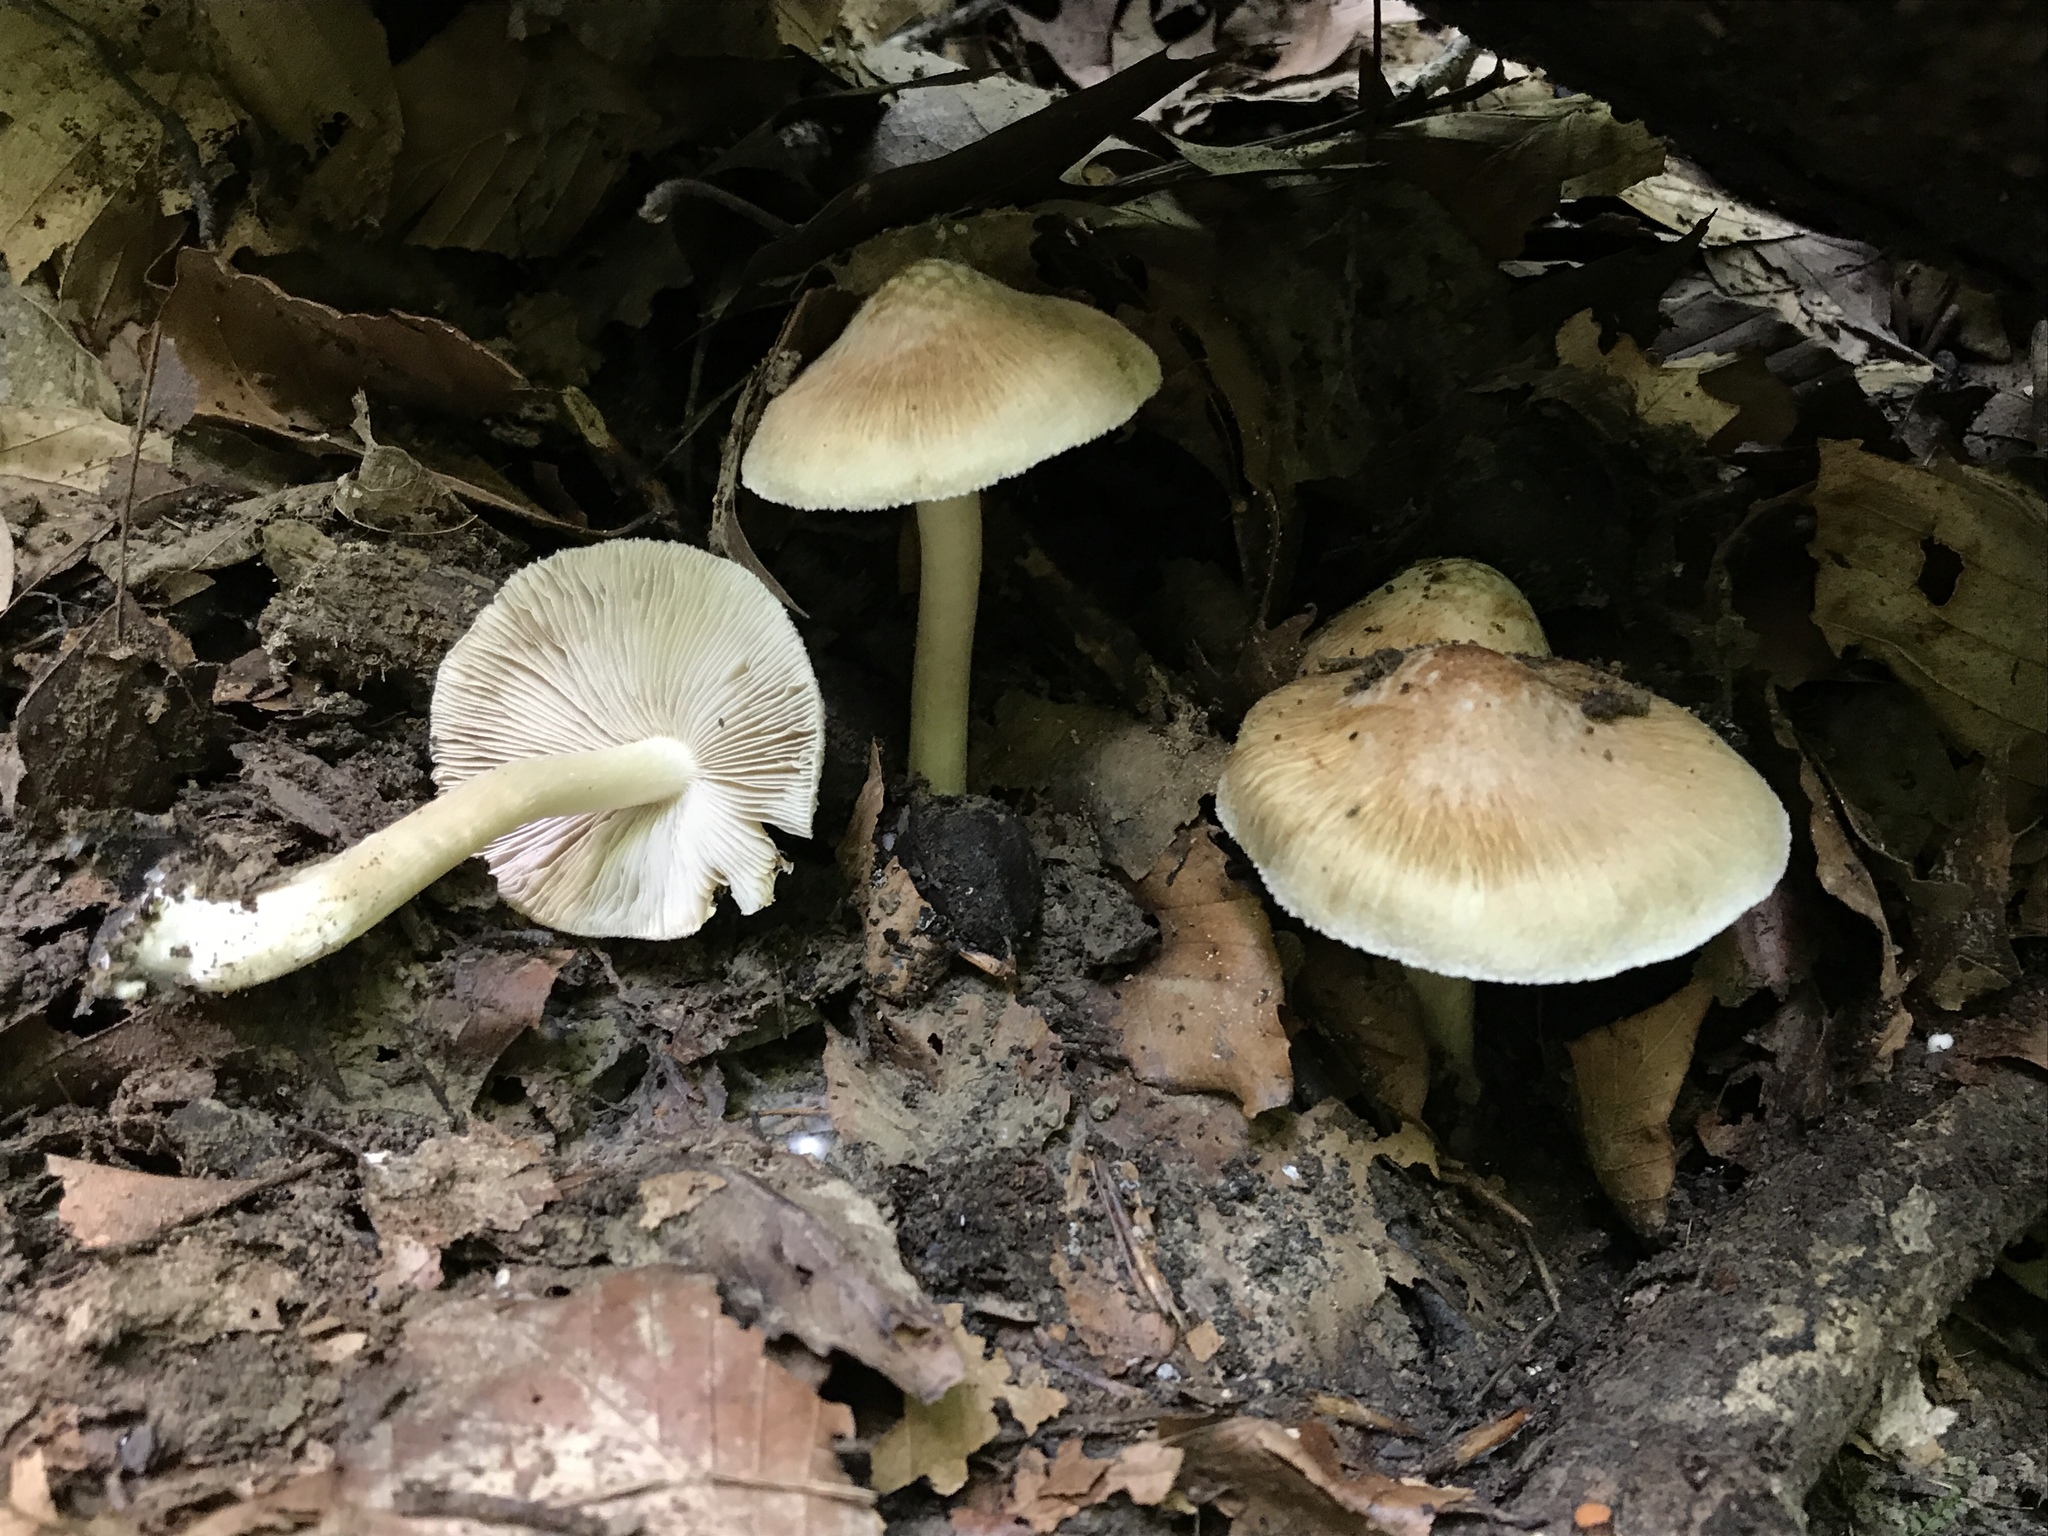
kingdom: Fungi
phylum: Basidiomycota
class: Agaricomycetes
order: Agaricales
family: Inocybaceae
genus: Pseudosperma
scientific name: Pseudosperma sororium
